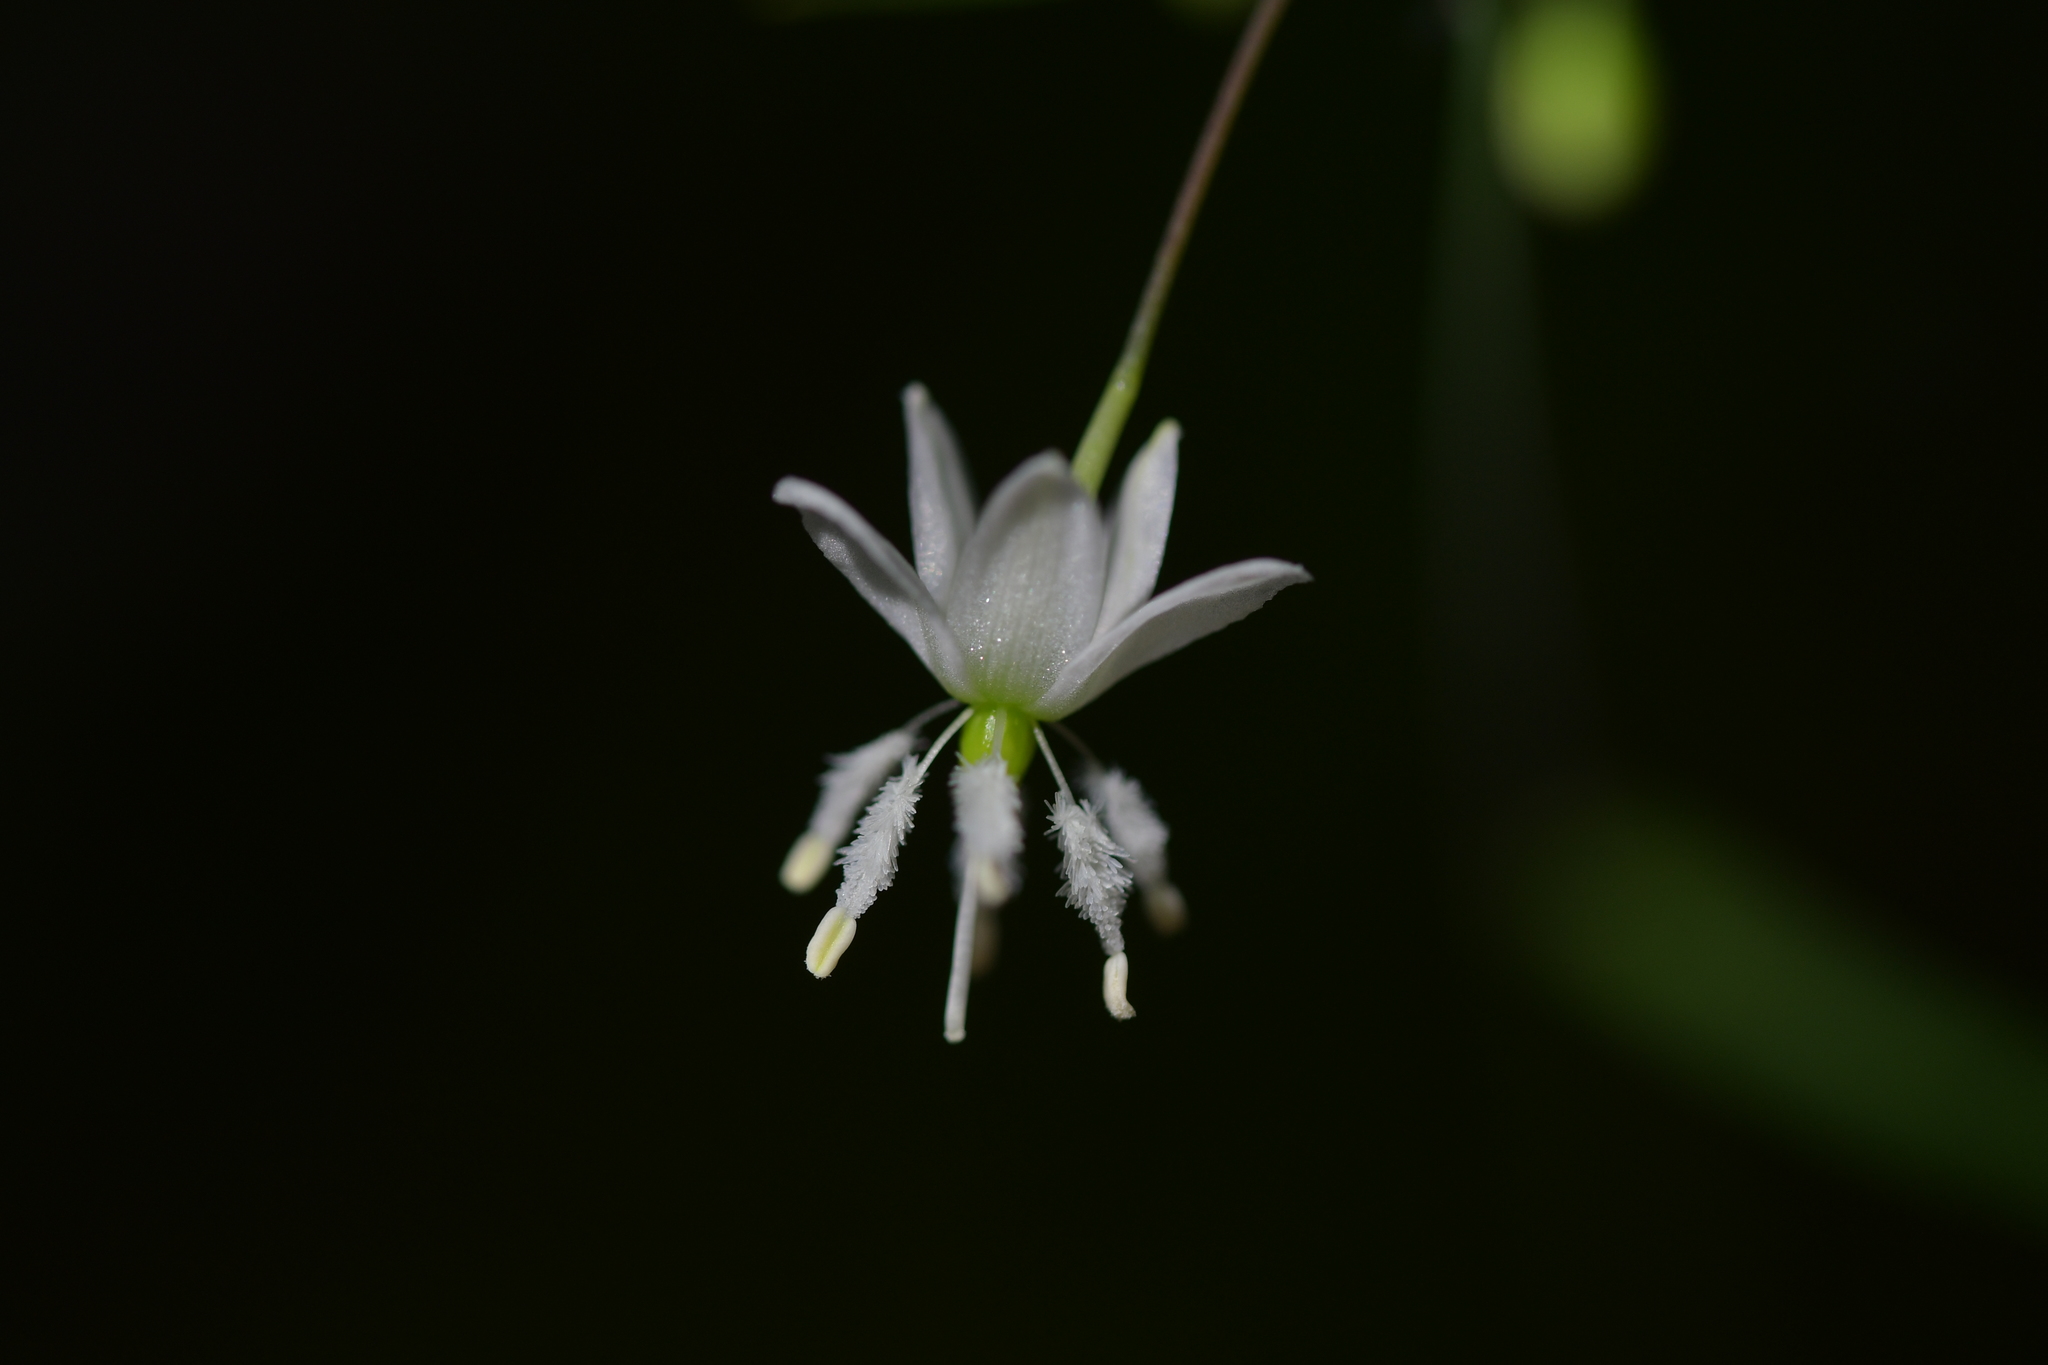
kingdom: Plantae
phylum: Tracheophyta
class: Liliopsida
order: Asparagales
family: Asparagaceae
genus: Arthropodium
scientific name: Arthropodium candidum
